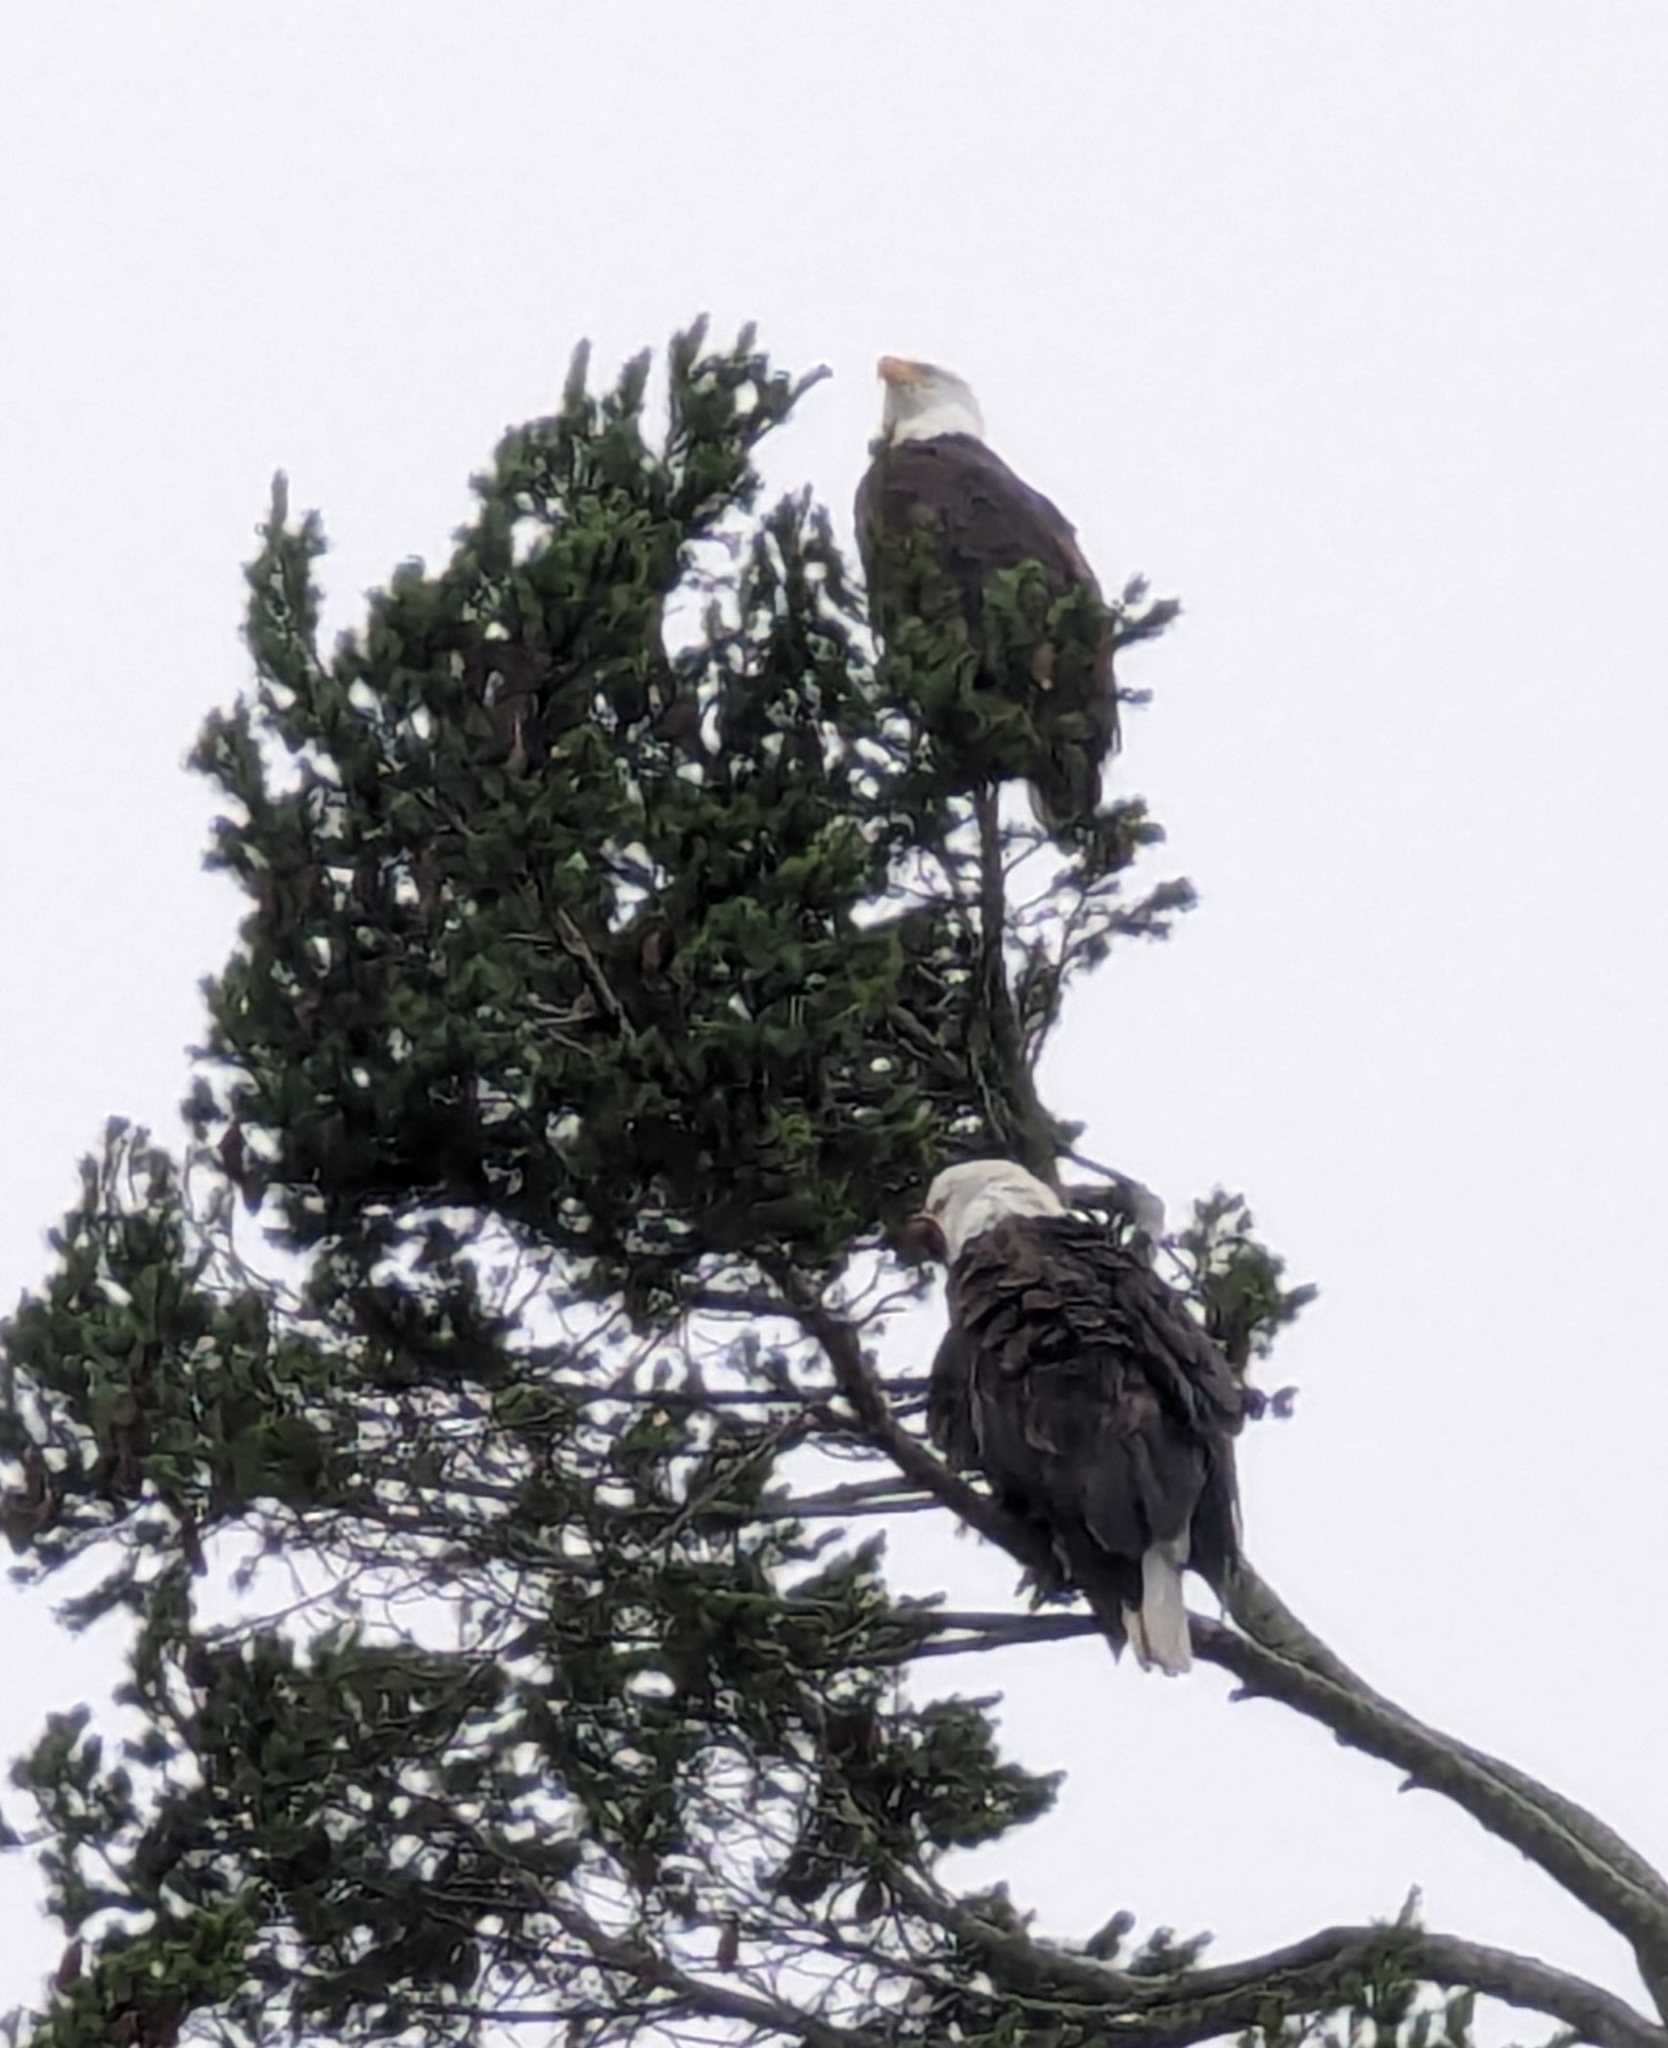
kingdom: Animalia
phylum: Chordata
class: Aves
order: Accipitriformes
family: Accipitridae
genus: Haliaeetus
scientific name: Haliaeetus leucocephalus
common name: Bald eagle
